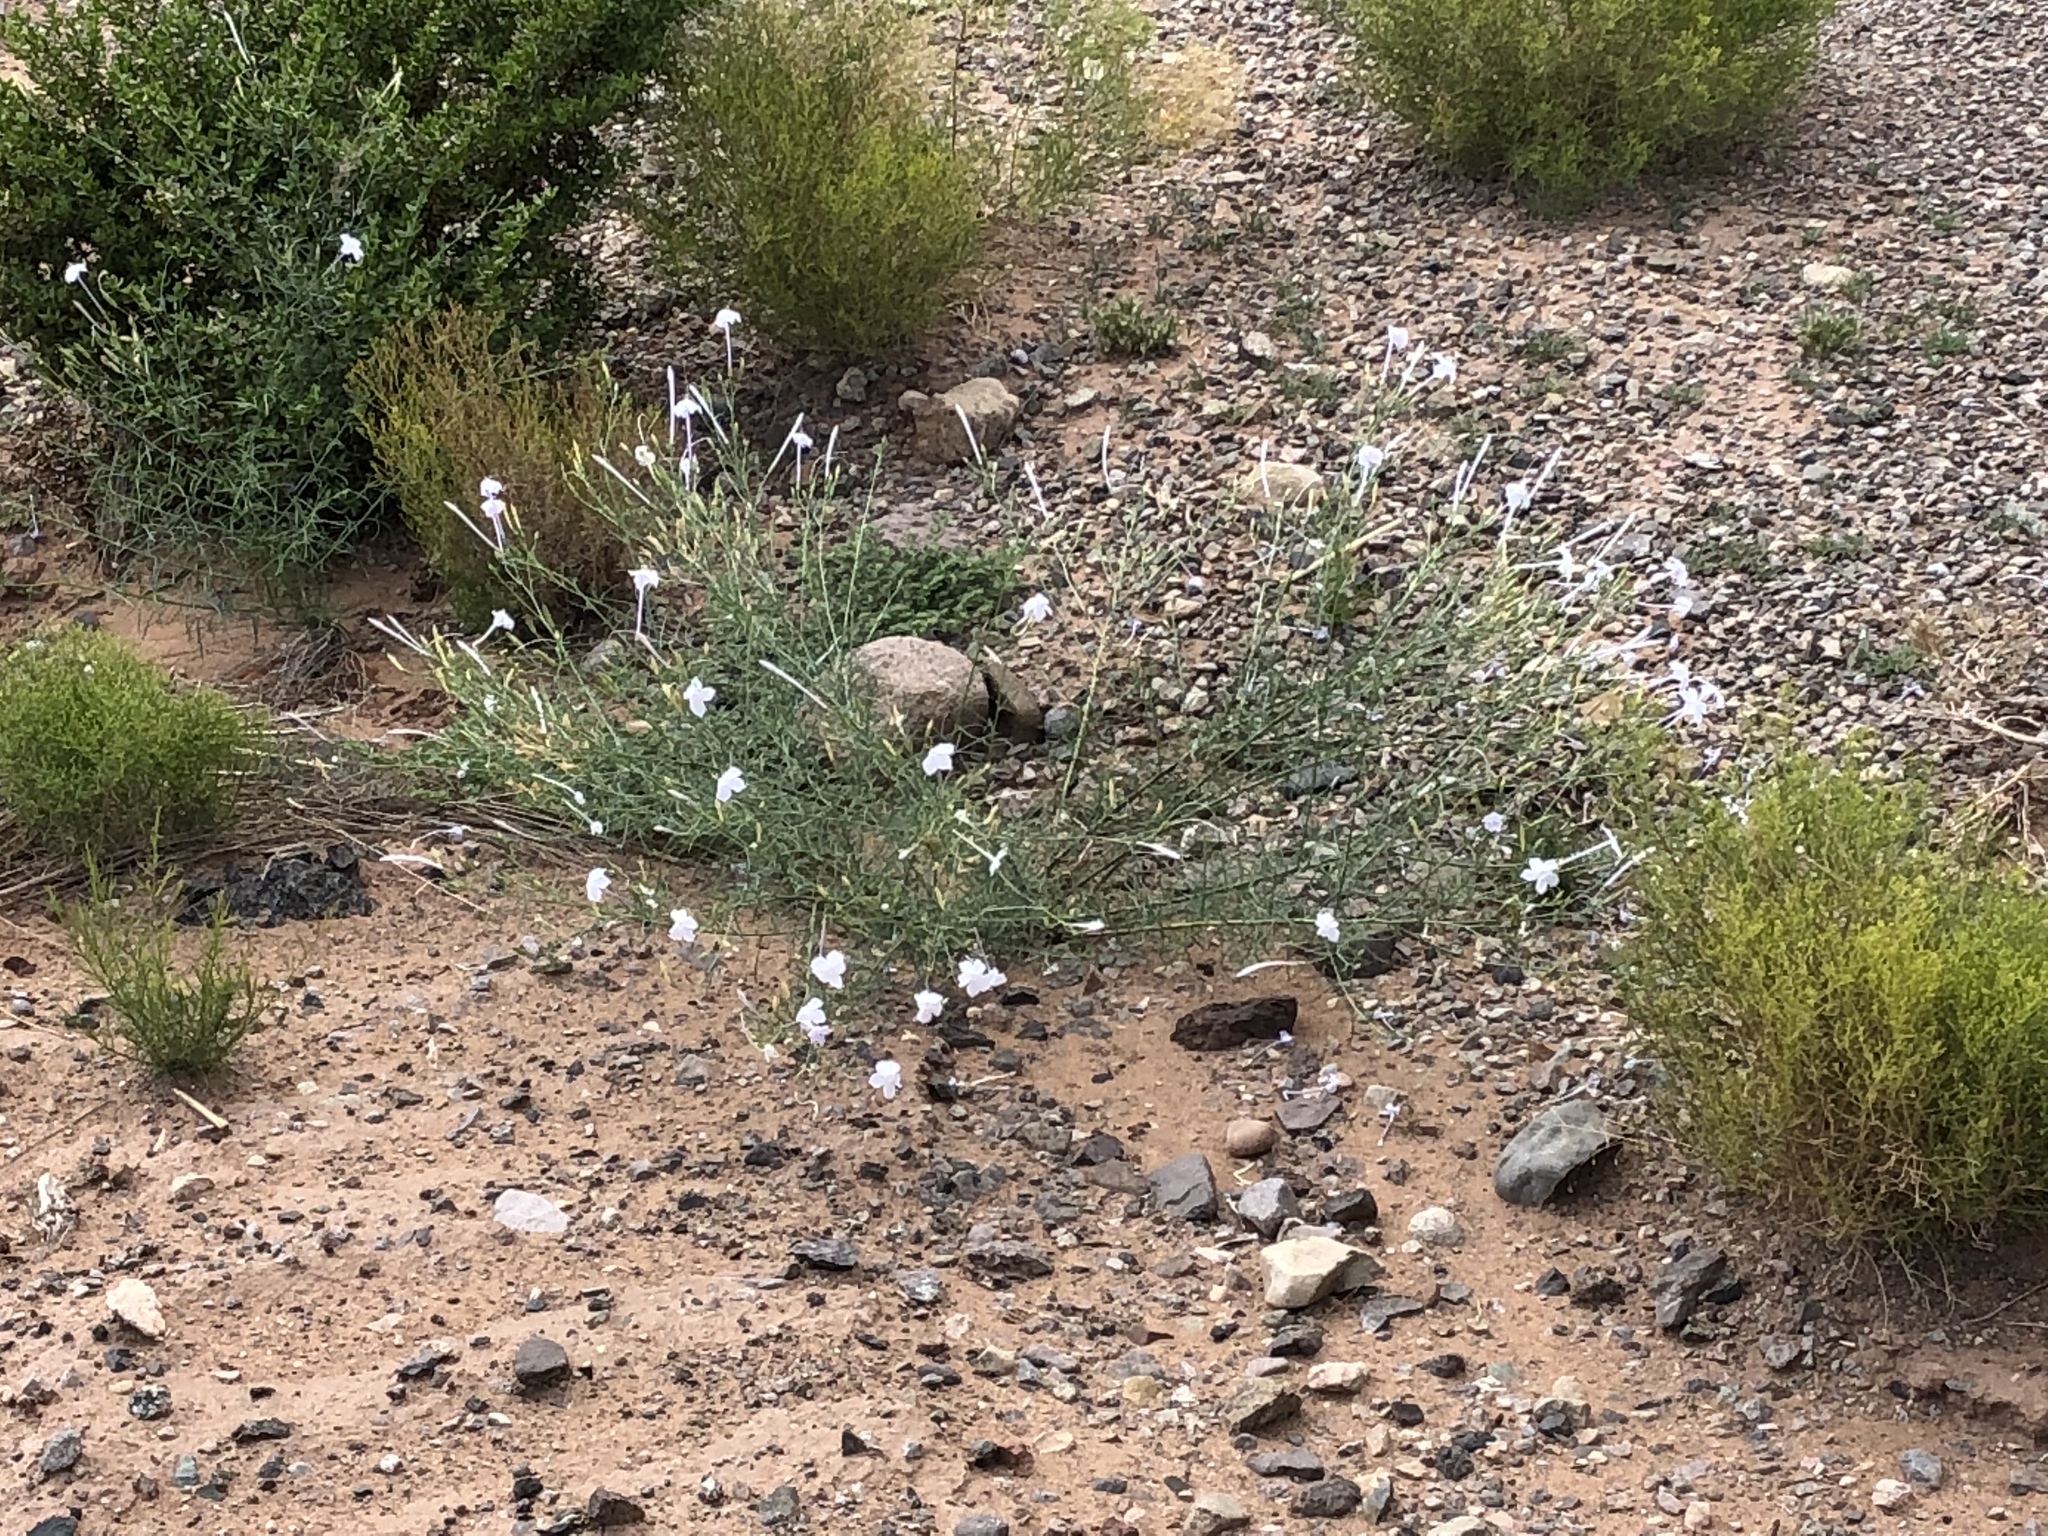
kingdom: Plantae
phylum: Tracheophyta
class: Magnoliopsida
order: Ericales
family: Polemoniaceae
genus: Ipomopsis
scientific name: Ipomopsis longiflora
